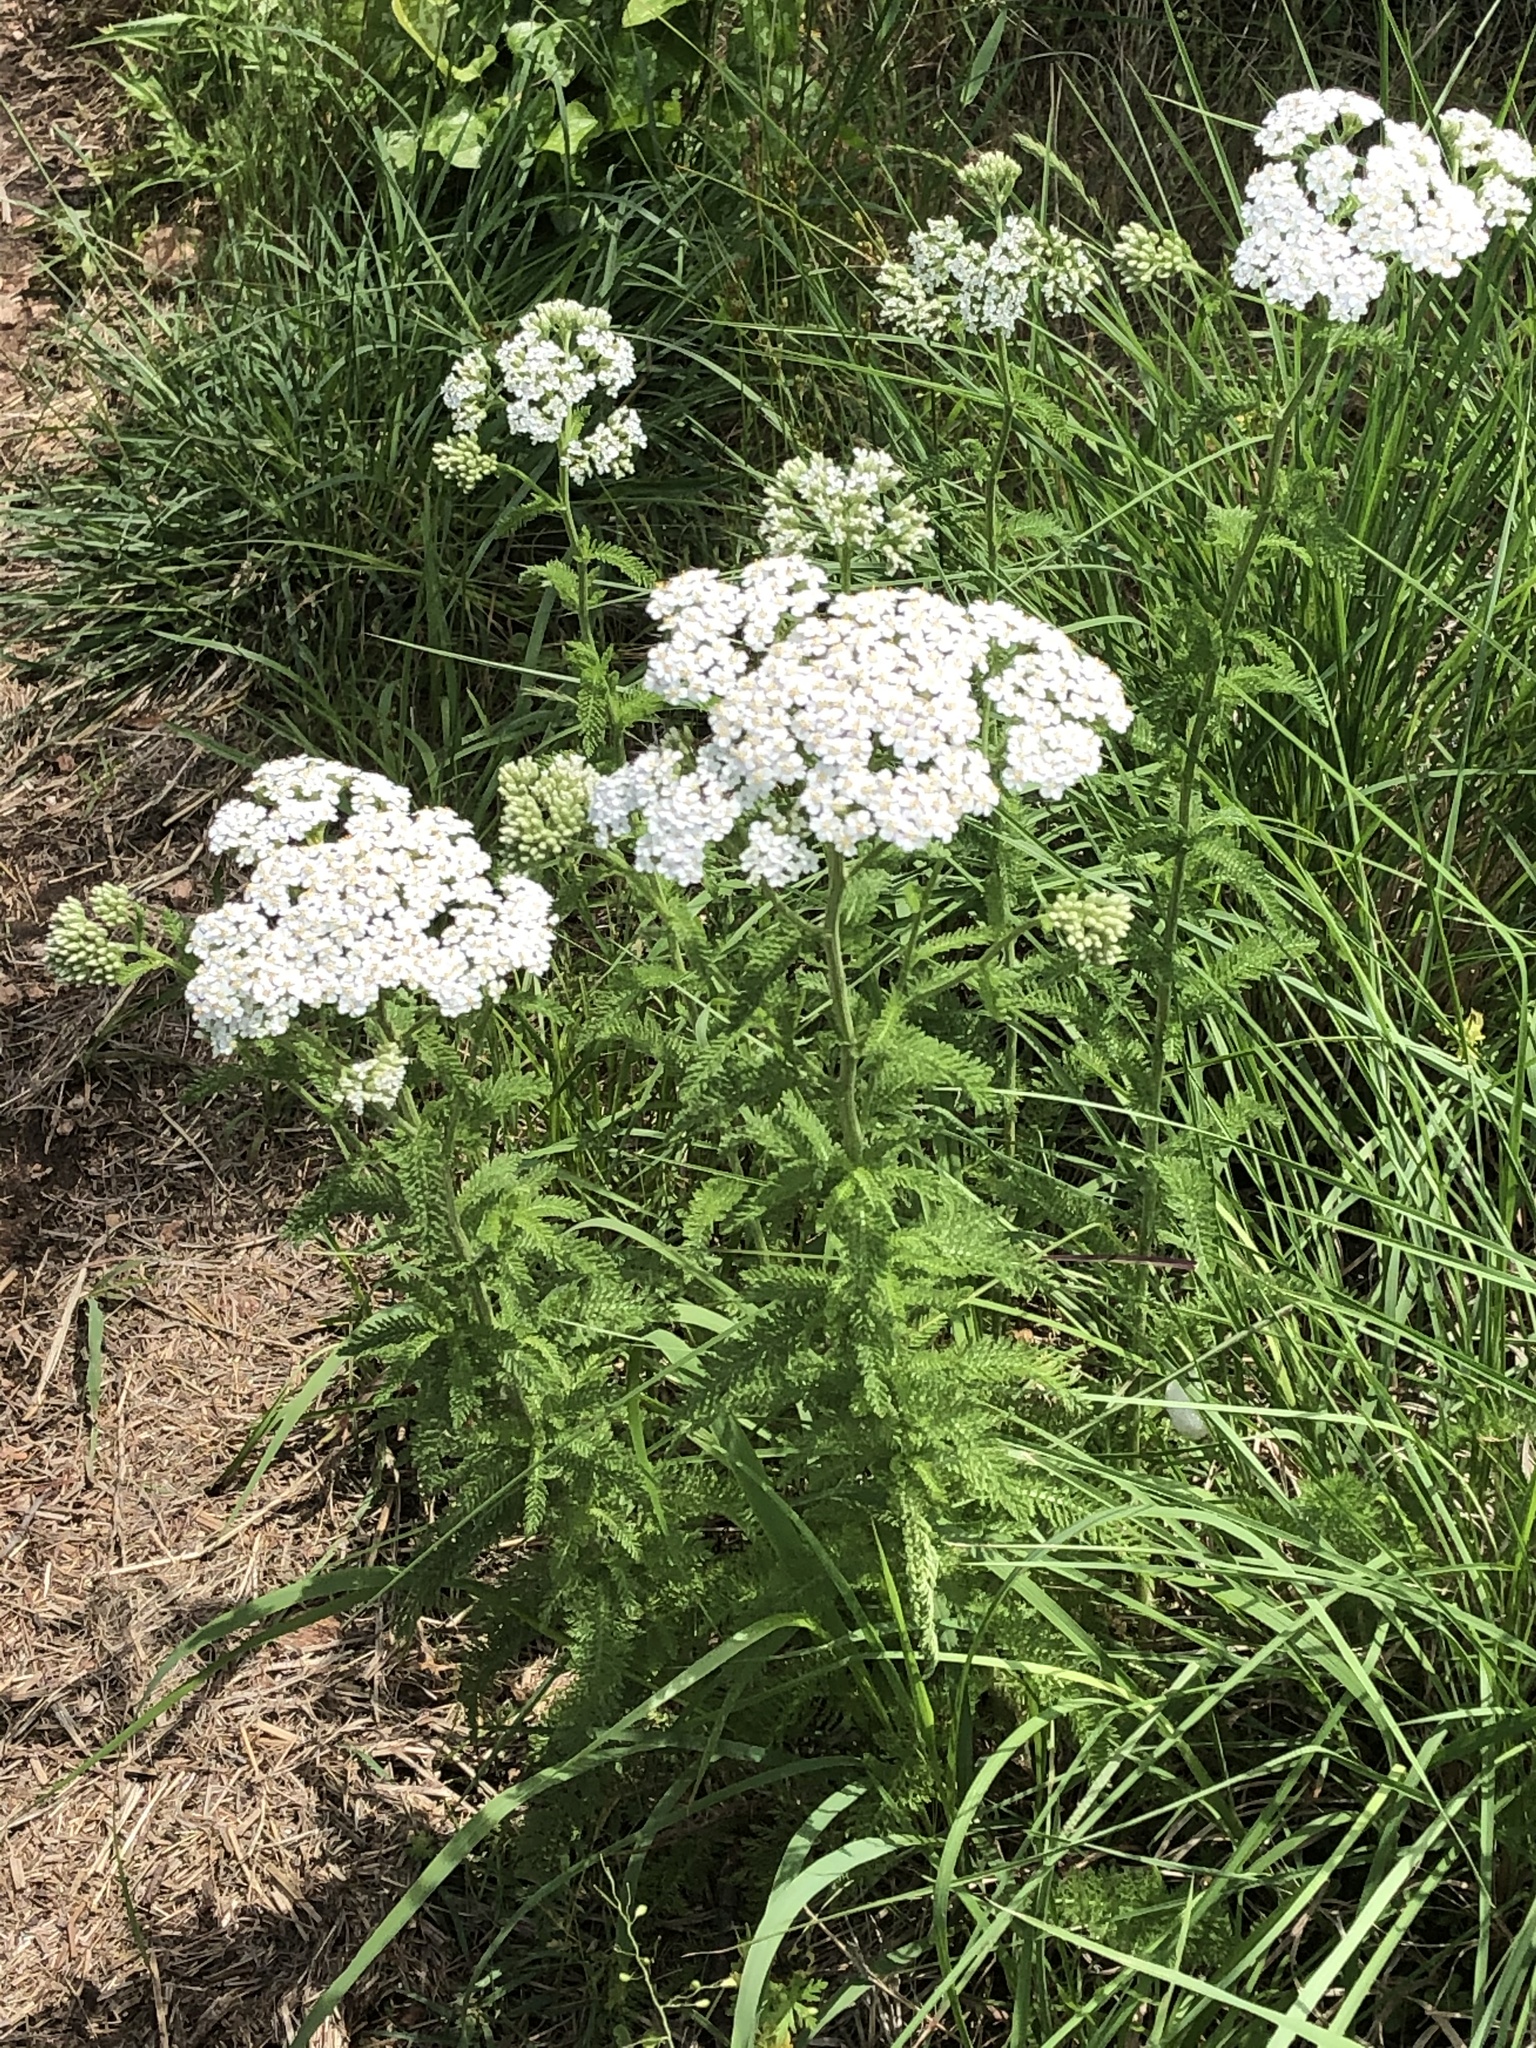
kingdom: Plantae
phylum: Tracheophyta
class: Magnoliopsida
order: Asterales
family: Asteraceae
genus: Achillea
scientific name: Achillea millefolium
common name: Yarrow
